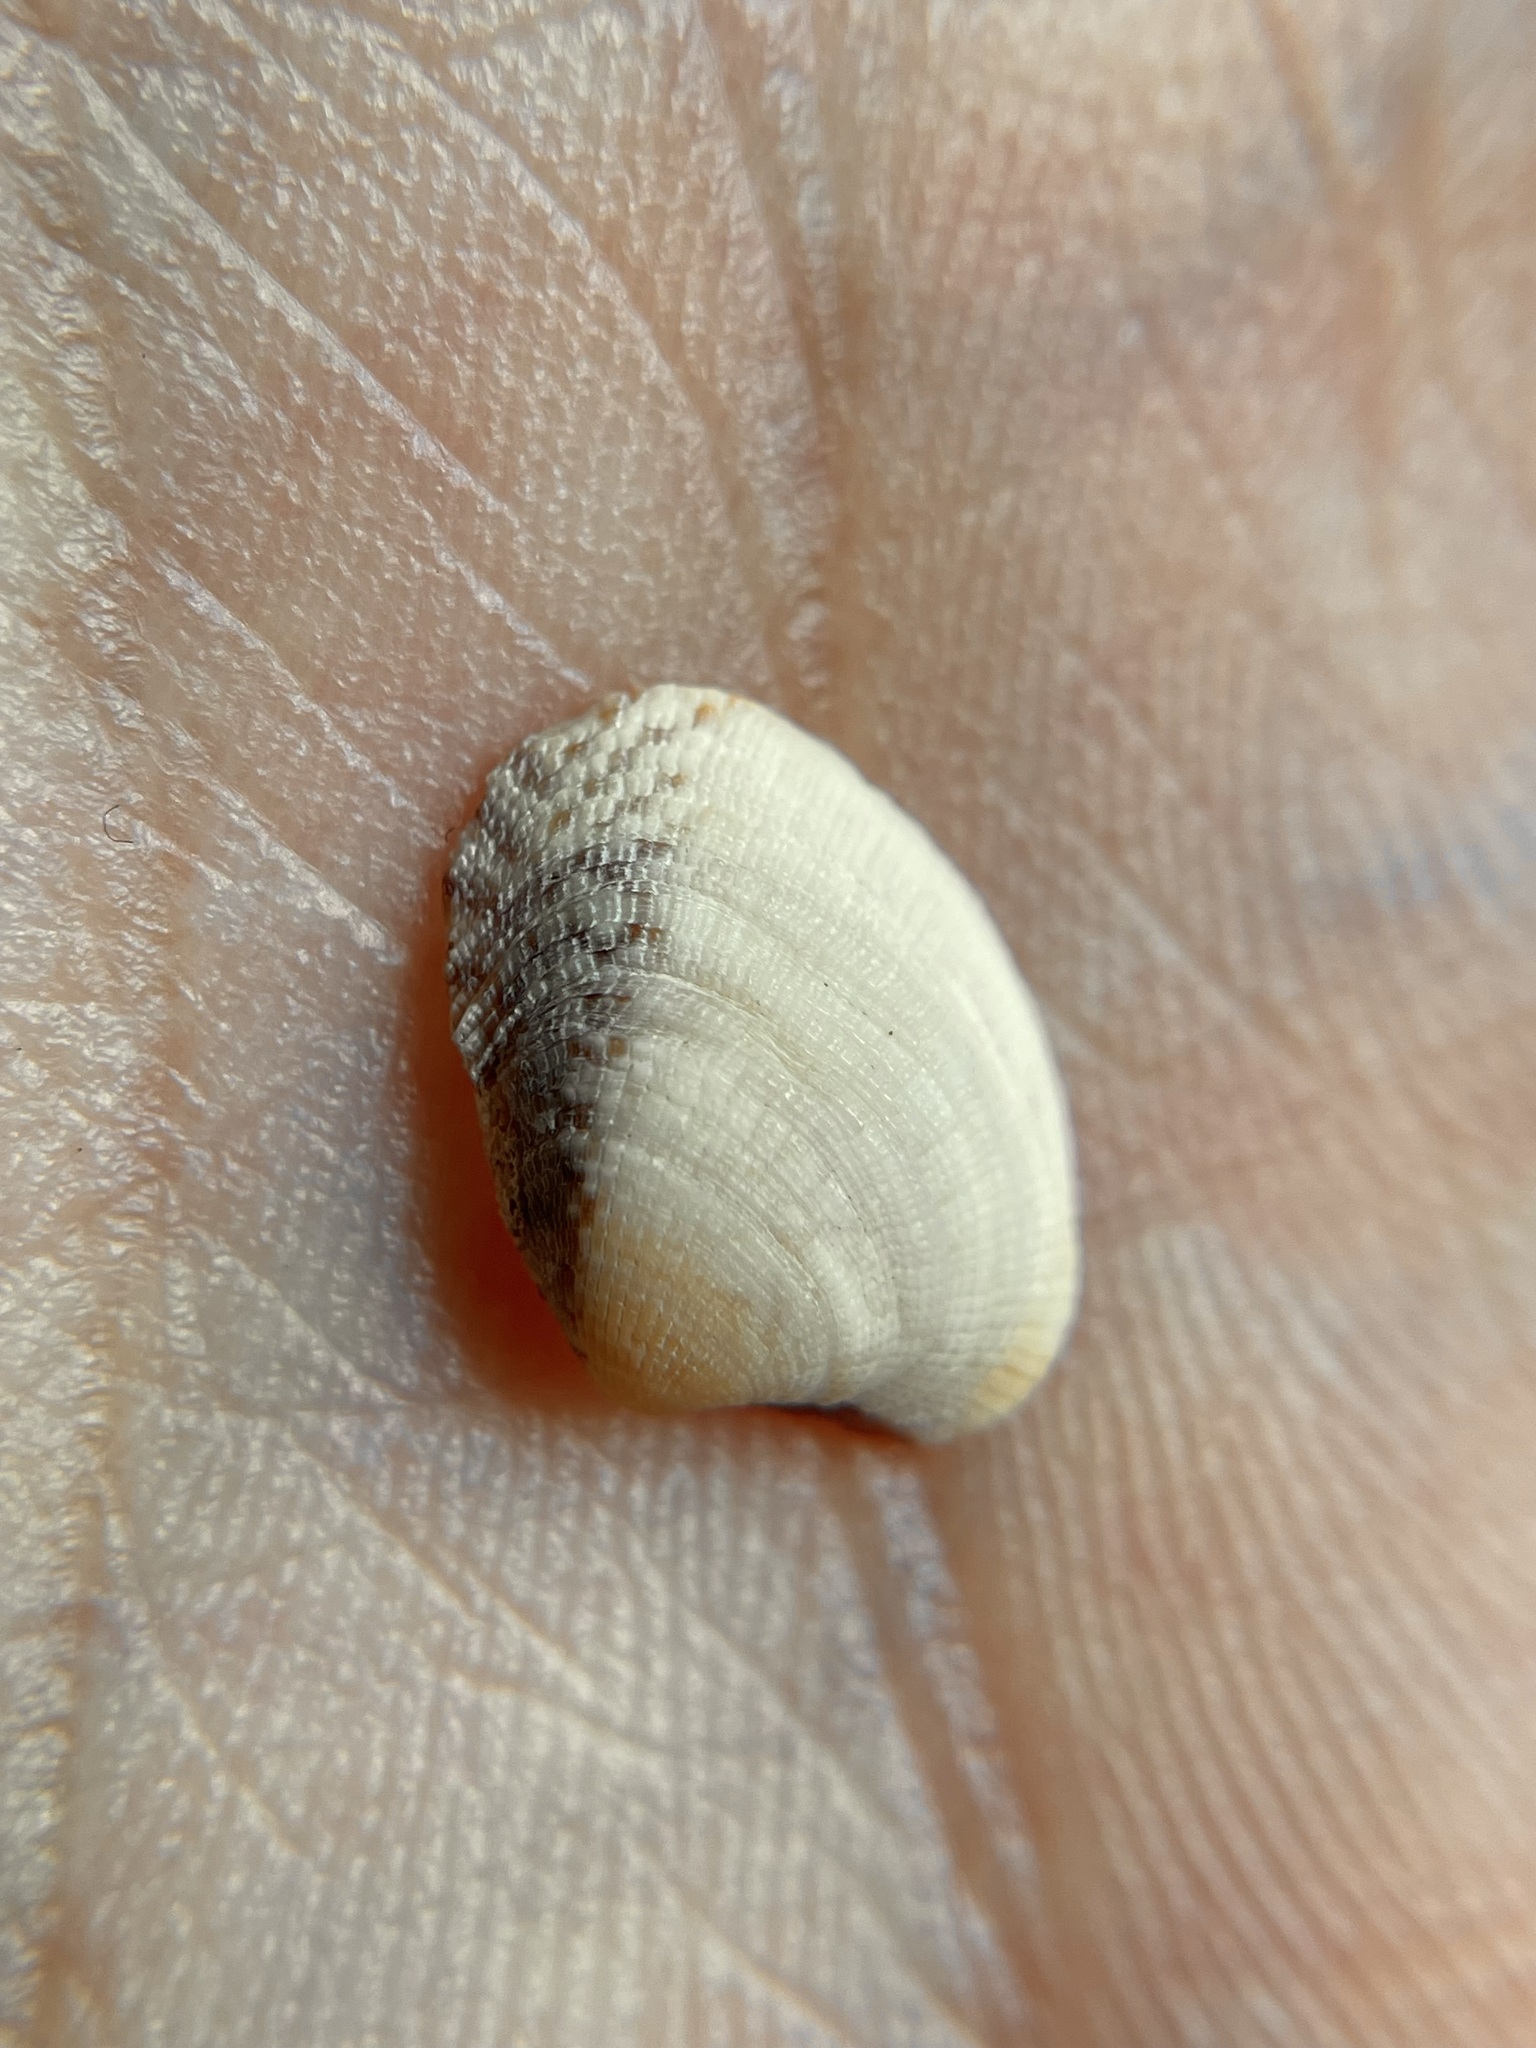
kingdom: Animalia
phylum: Mollusca
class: Bivalvia
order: Venerida
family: Veneridae
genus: Chioneryx
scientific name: Chioneryx grus
